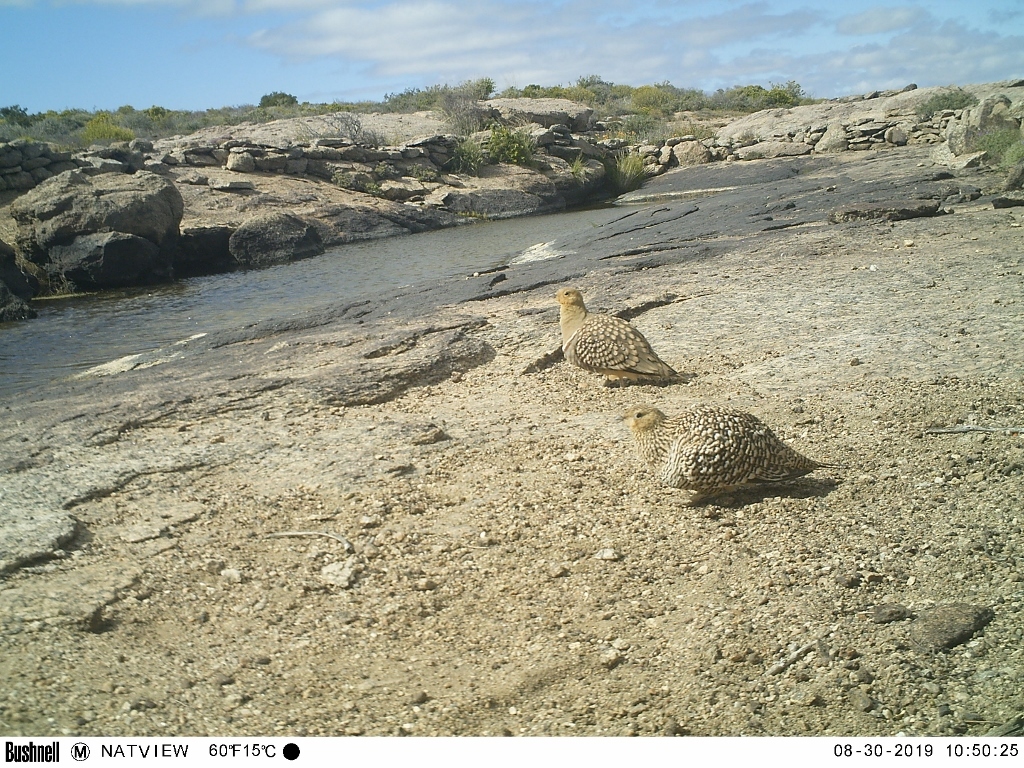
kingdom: Animalia
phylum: Chordata
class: Aves
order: Pteroclidiformes
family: Pteroclididae
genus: Pterocles
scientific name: Pterocles namaqua
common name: Namaqua sandgrouse
